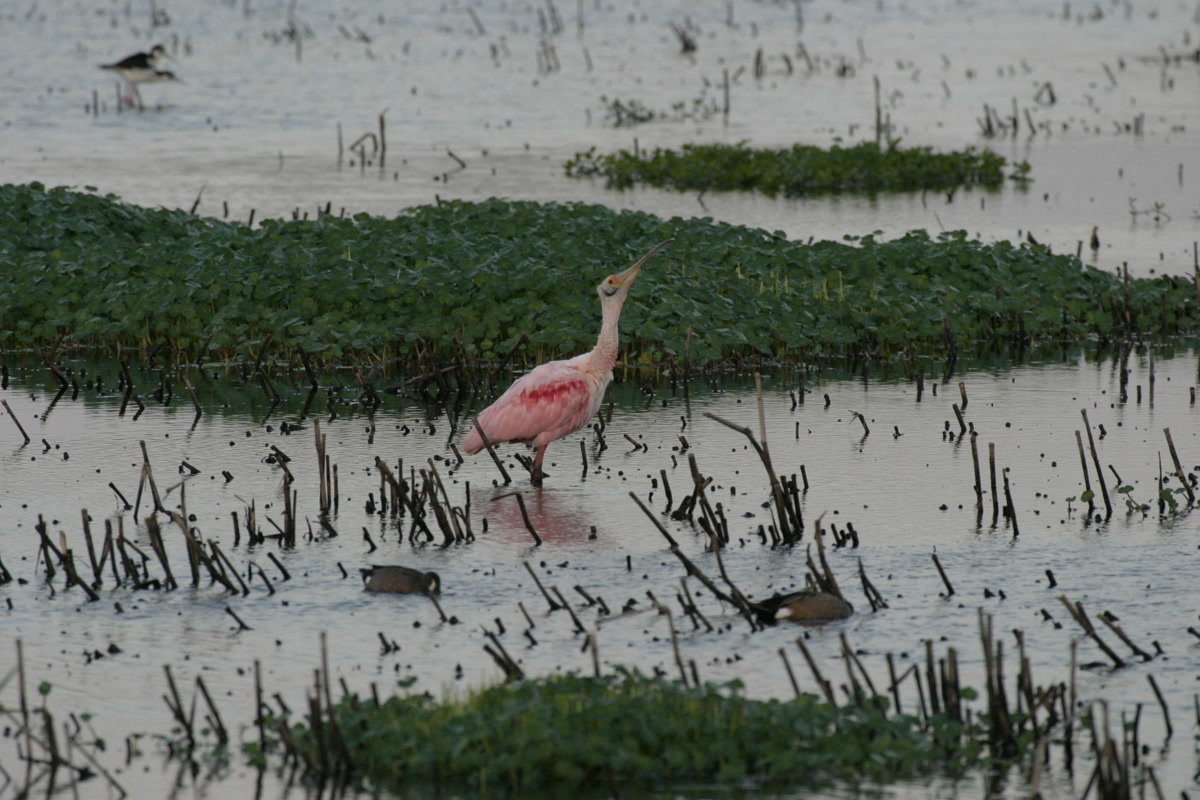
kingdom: Animalia
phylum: Chordata
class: Aves
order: Pelecaniformes
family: Threskiornithidae
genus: Platalea
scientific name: Platalea ajaja
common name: Roseate spoonbill
